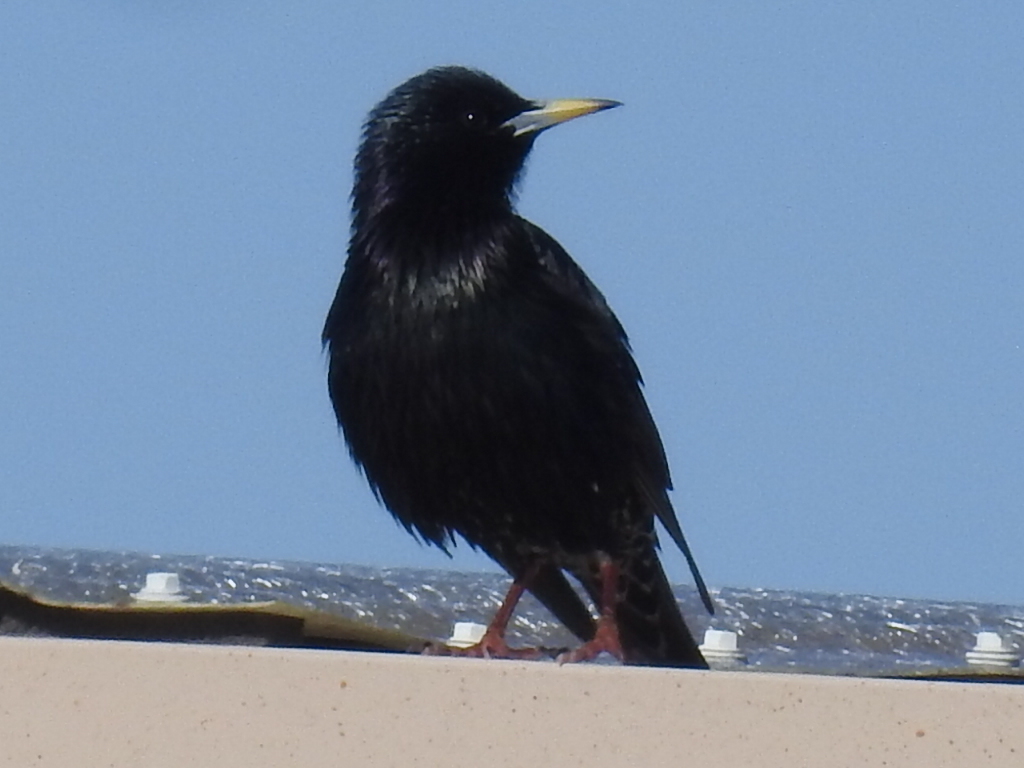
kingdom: Animalia
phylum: Chordata
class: Aves
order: Passeriformes
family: Sturnidae
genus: Sturnus
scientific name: Sturnus vulgaris
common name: Common starling
